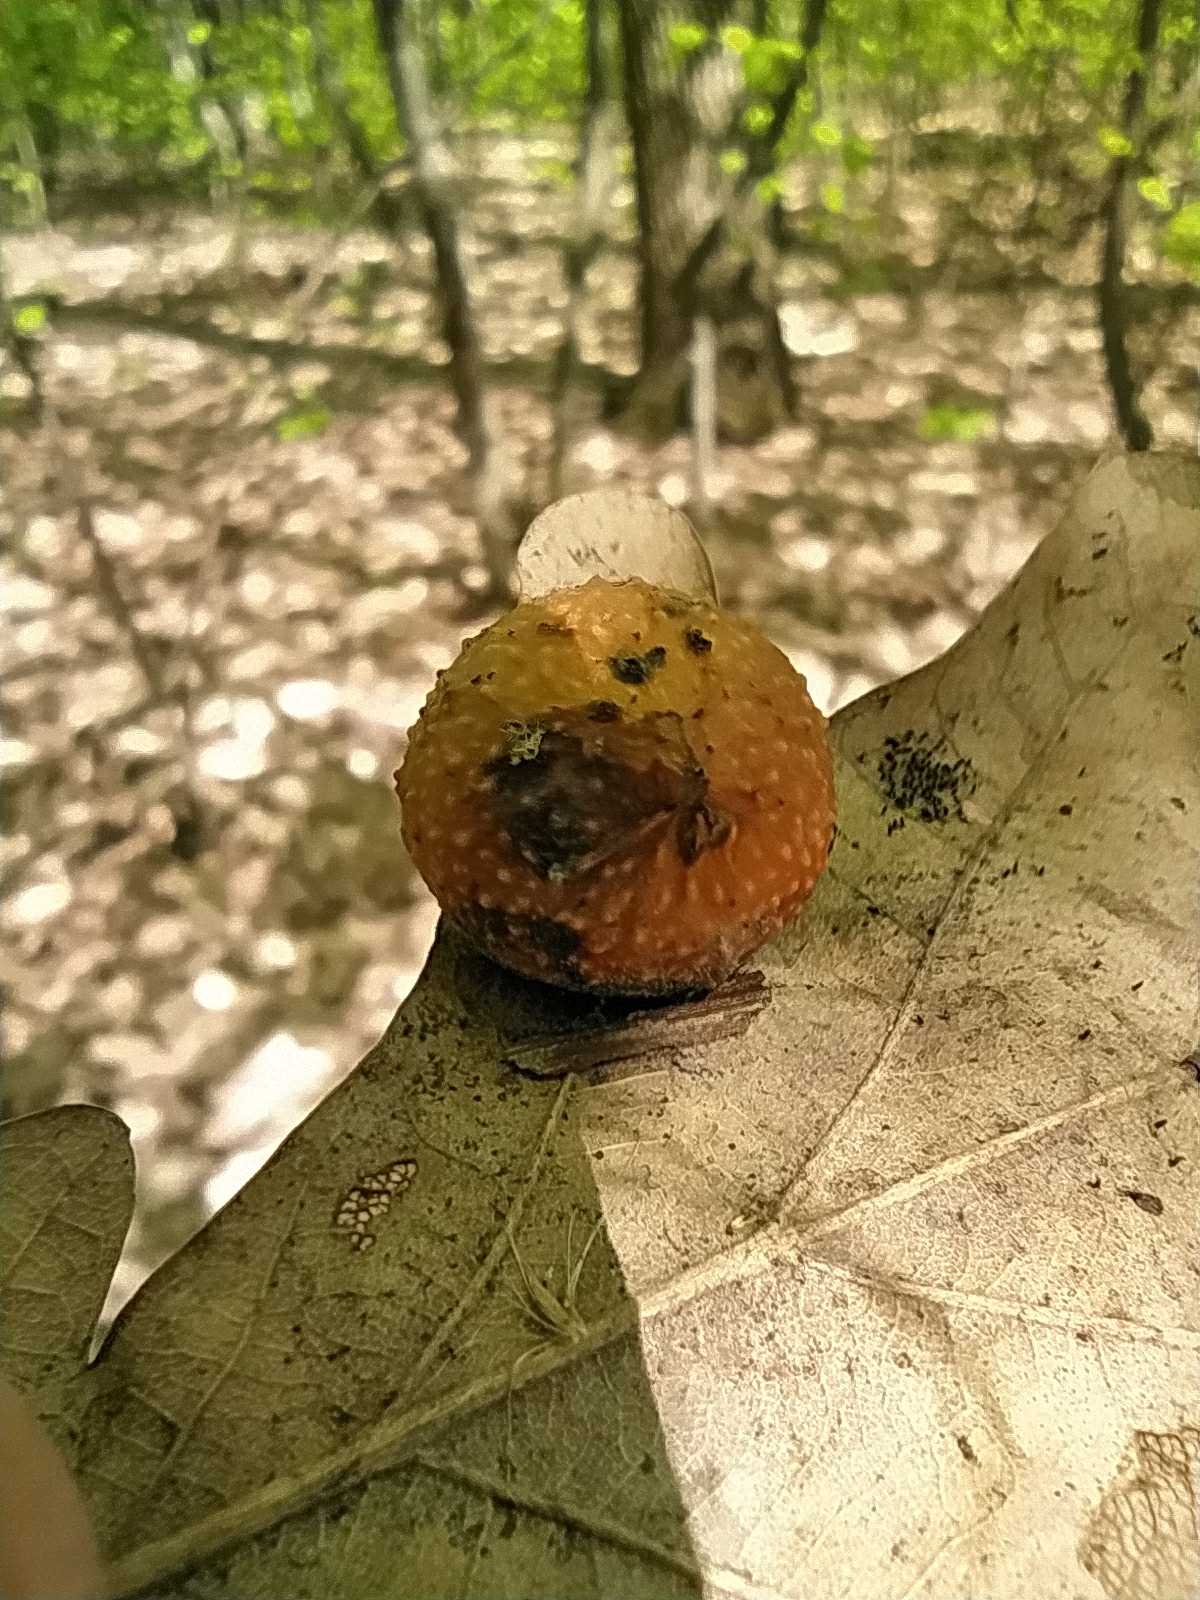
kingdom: Animalia
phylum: Arthropoda
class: Insecta
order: Hymenoptera
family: Cynipidae
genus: Cynips
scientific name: Cynips quercusfolii
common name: Cherry gall
